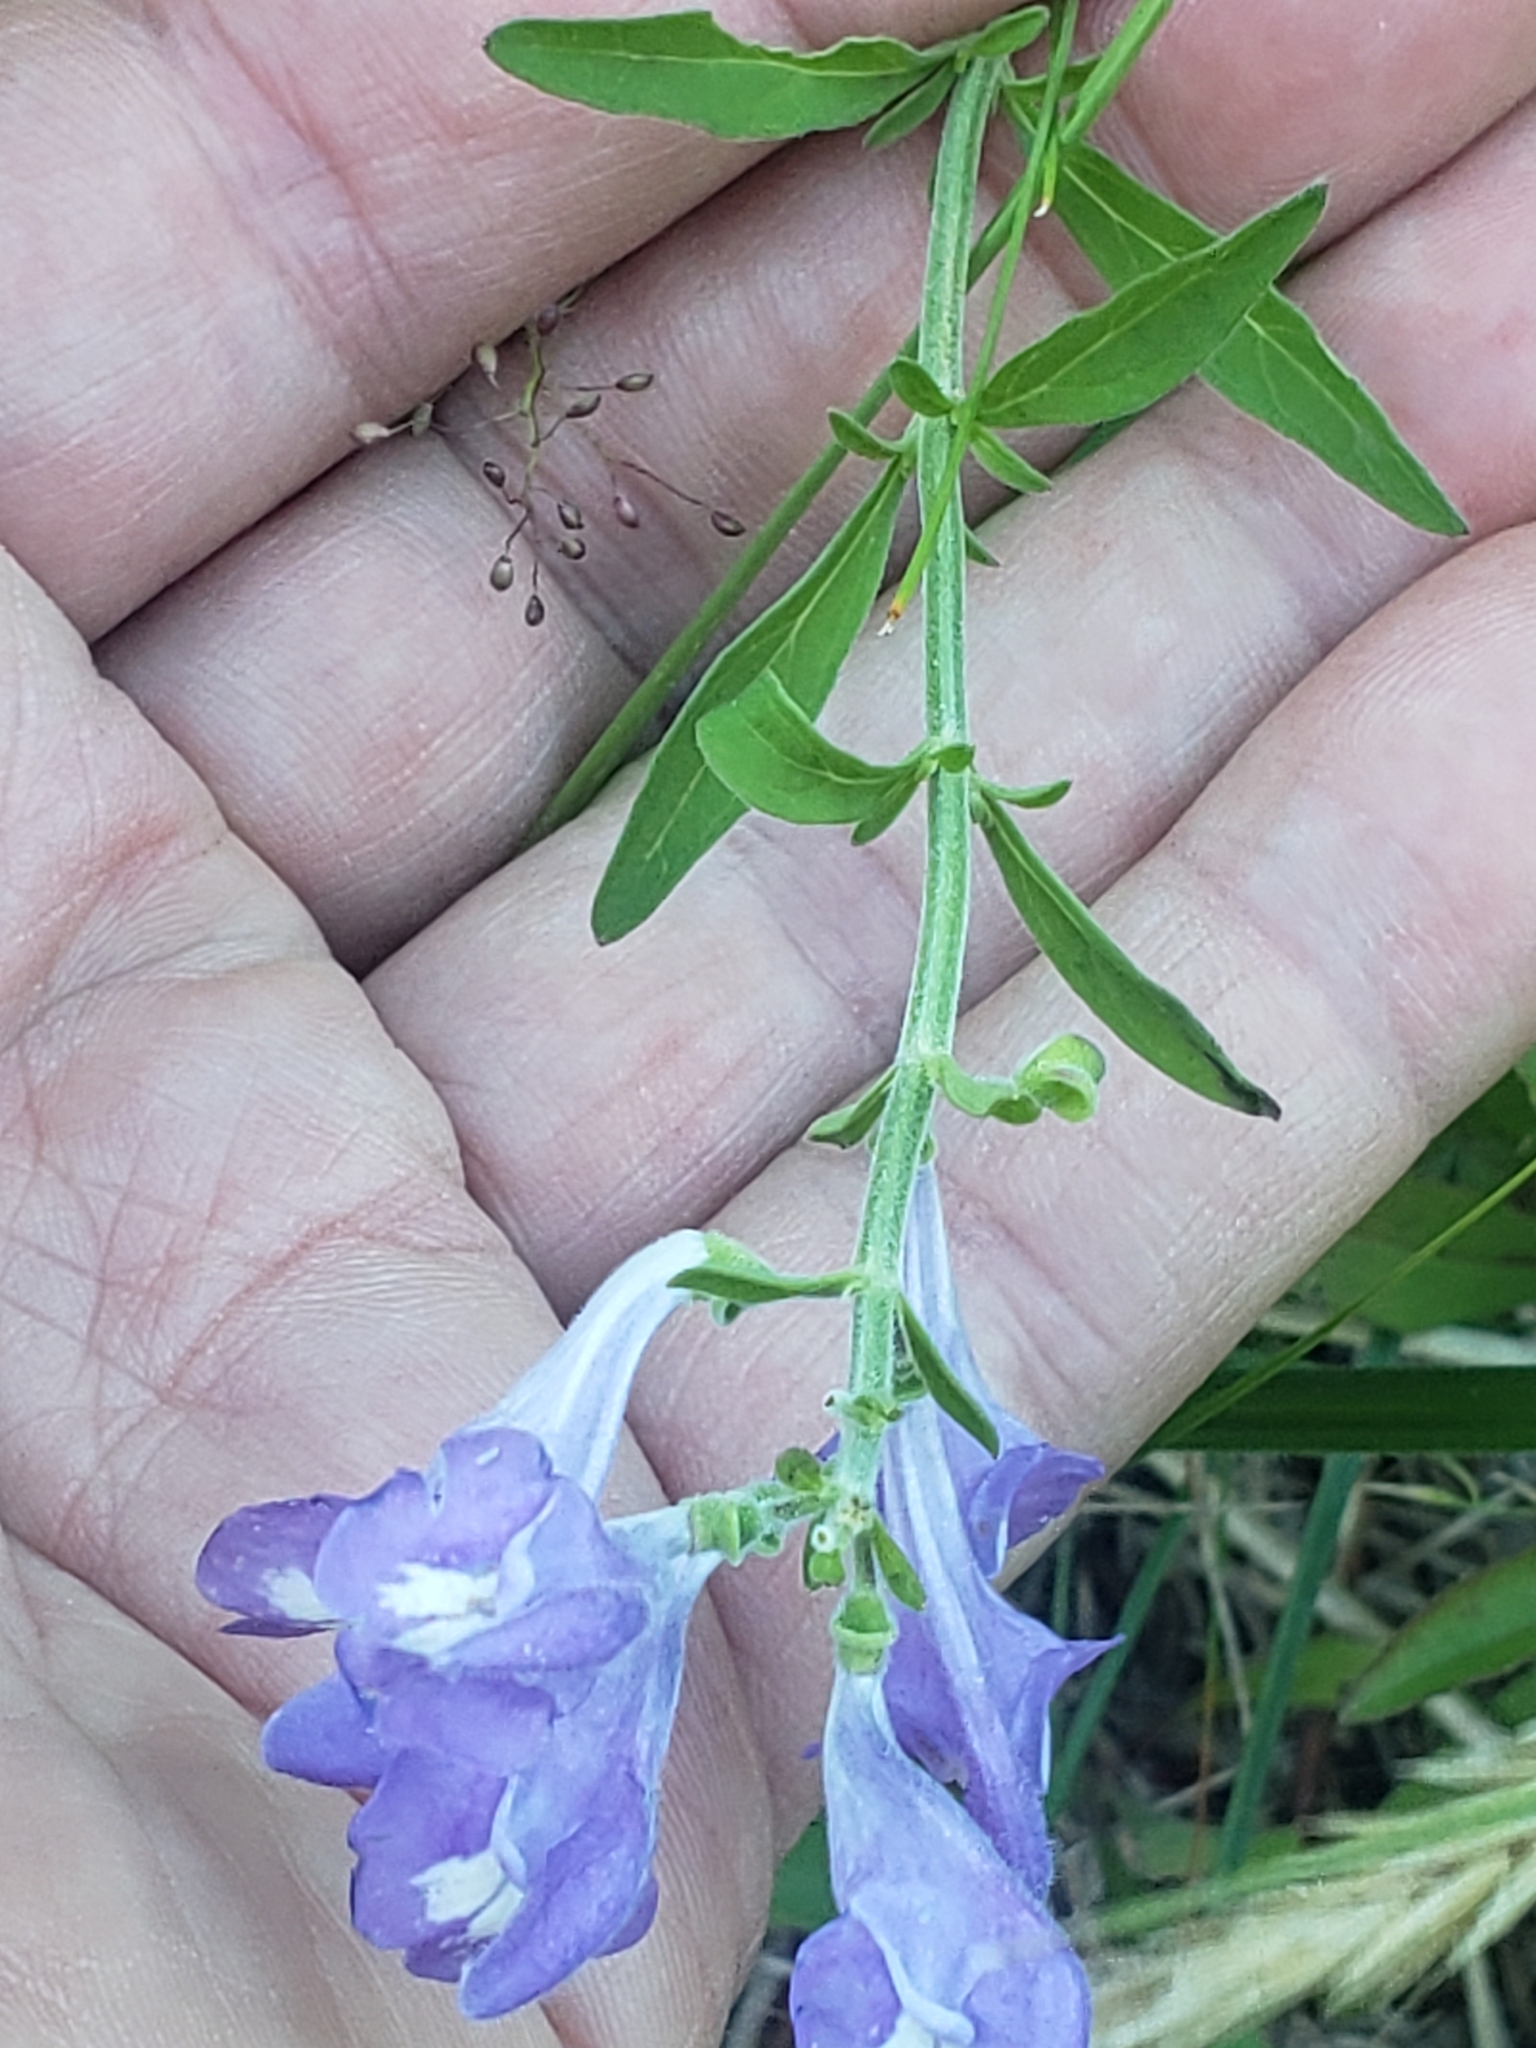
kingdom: Plantae
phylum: Tracheophyta
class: Magnoliopsida
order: Lamiales
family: Lamiaceae
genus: Scutellaria
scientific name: Scutellaria integrifolia
